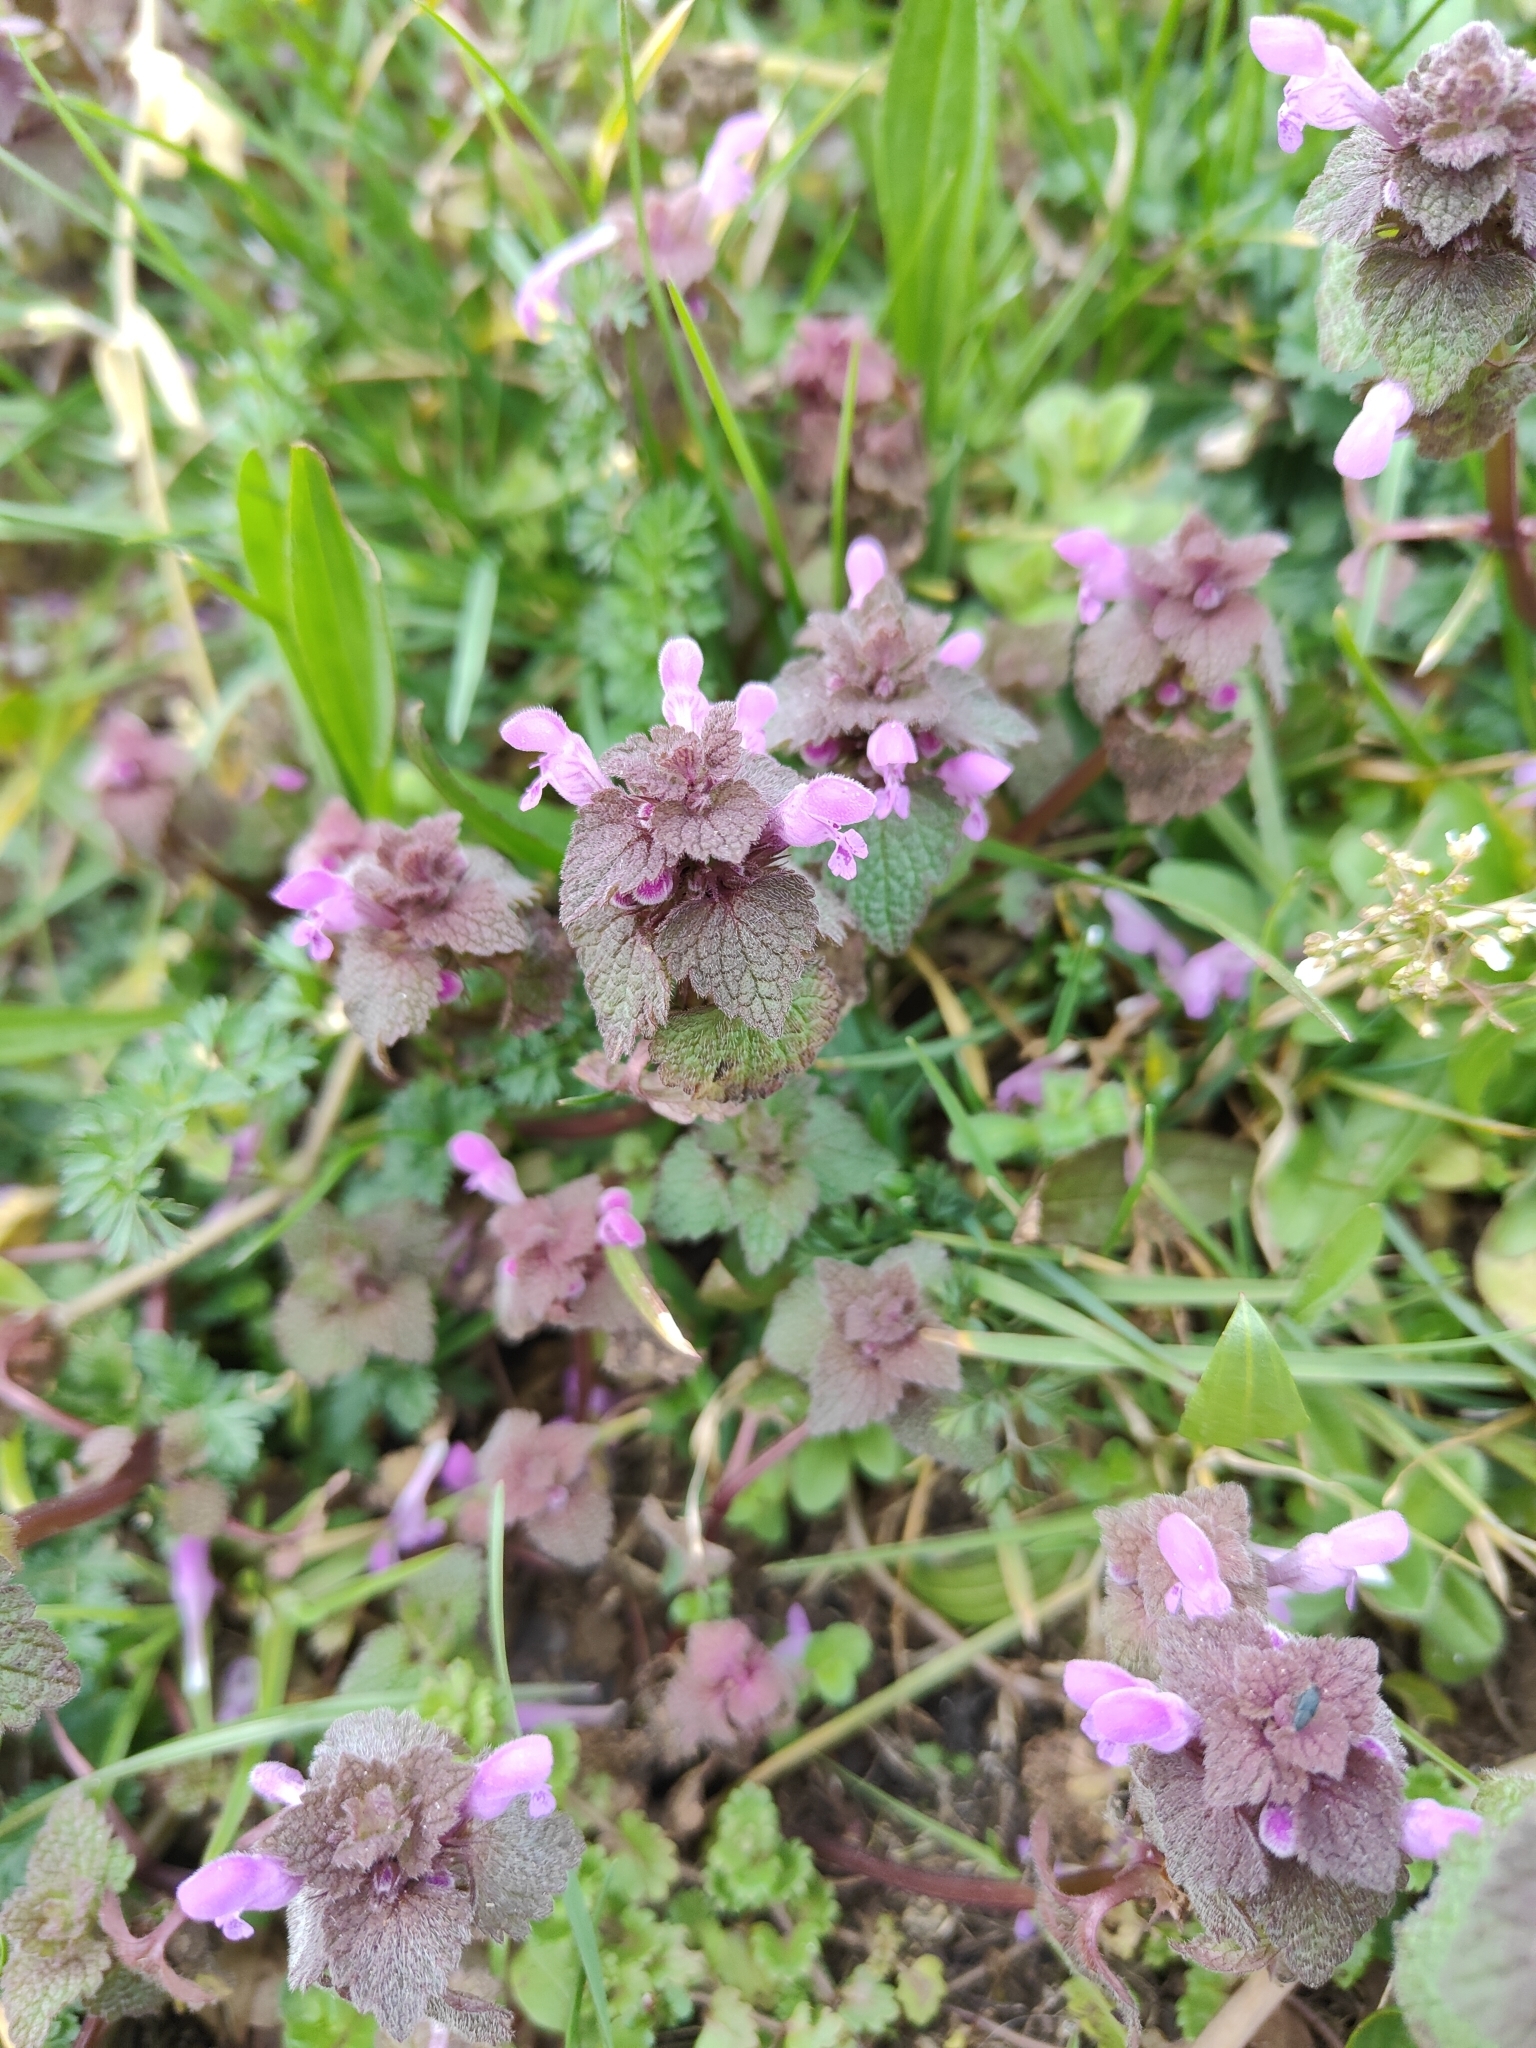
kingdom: Plantae
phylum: Tracheophyta
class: Magnoliopsida
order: Lamiales
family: Lamiaceae
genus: Lamium
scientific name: Lamium purpureum
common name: Red dead-nettle
